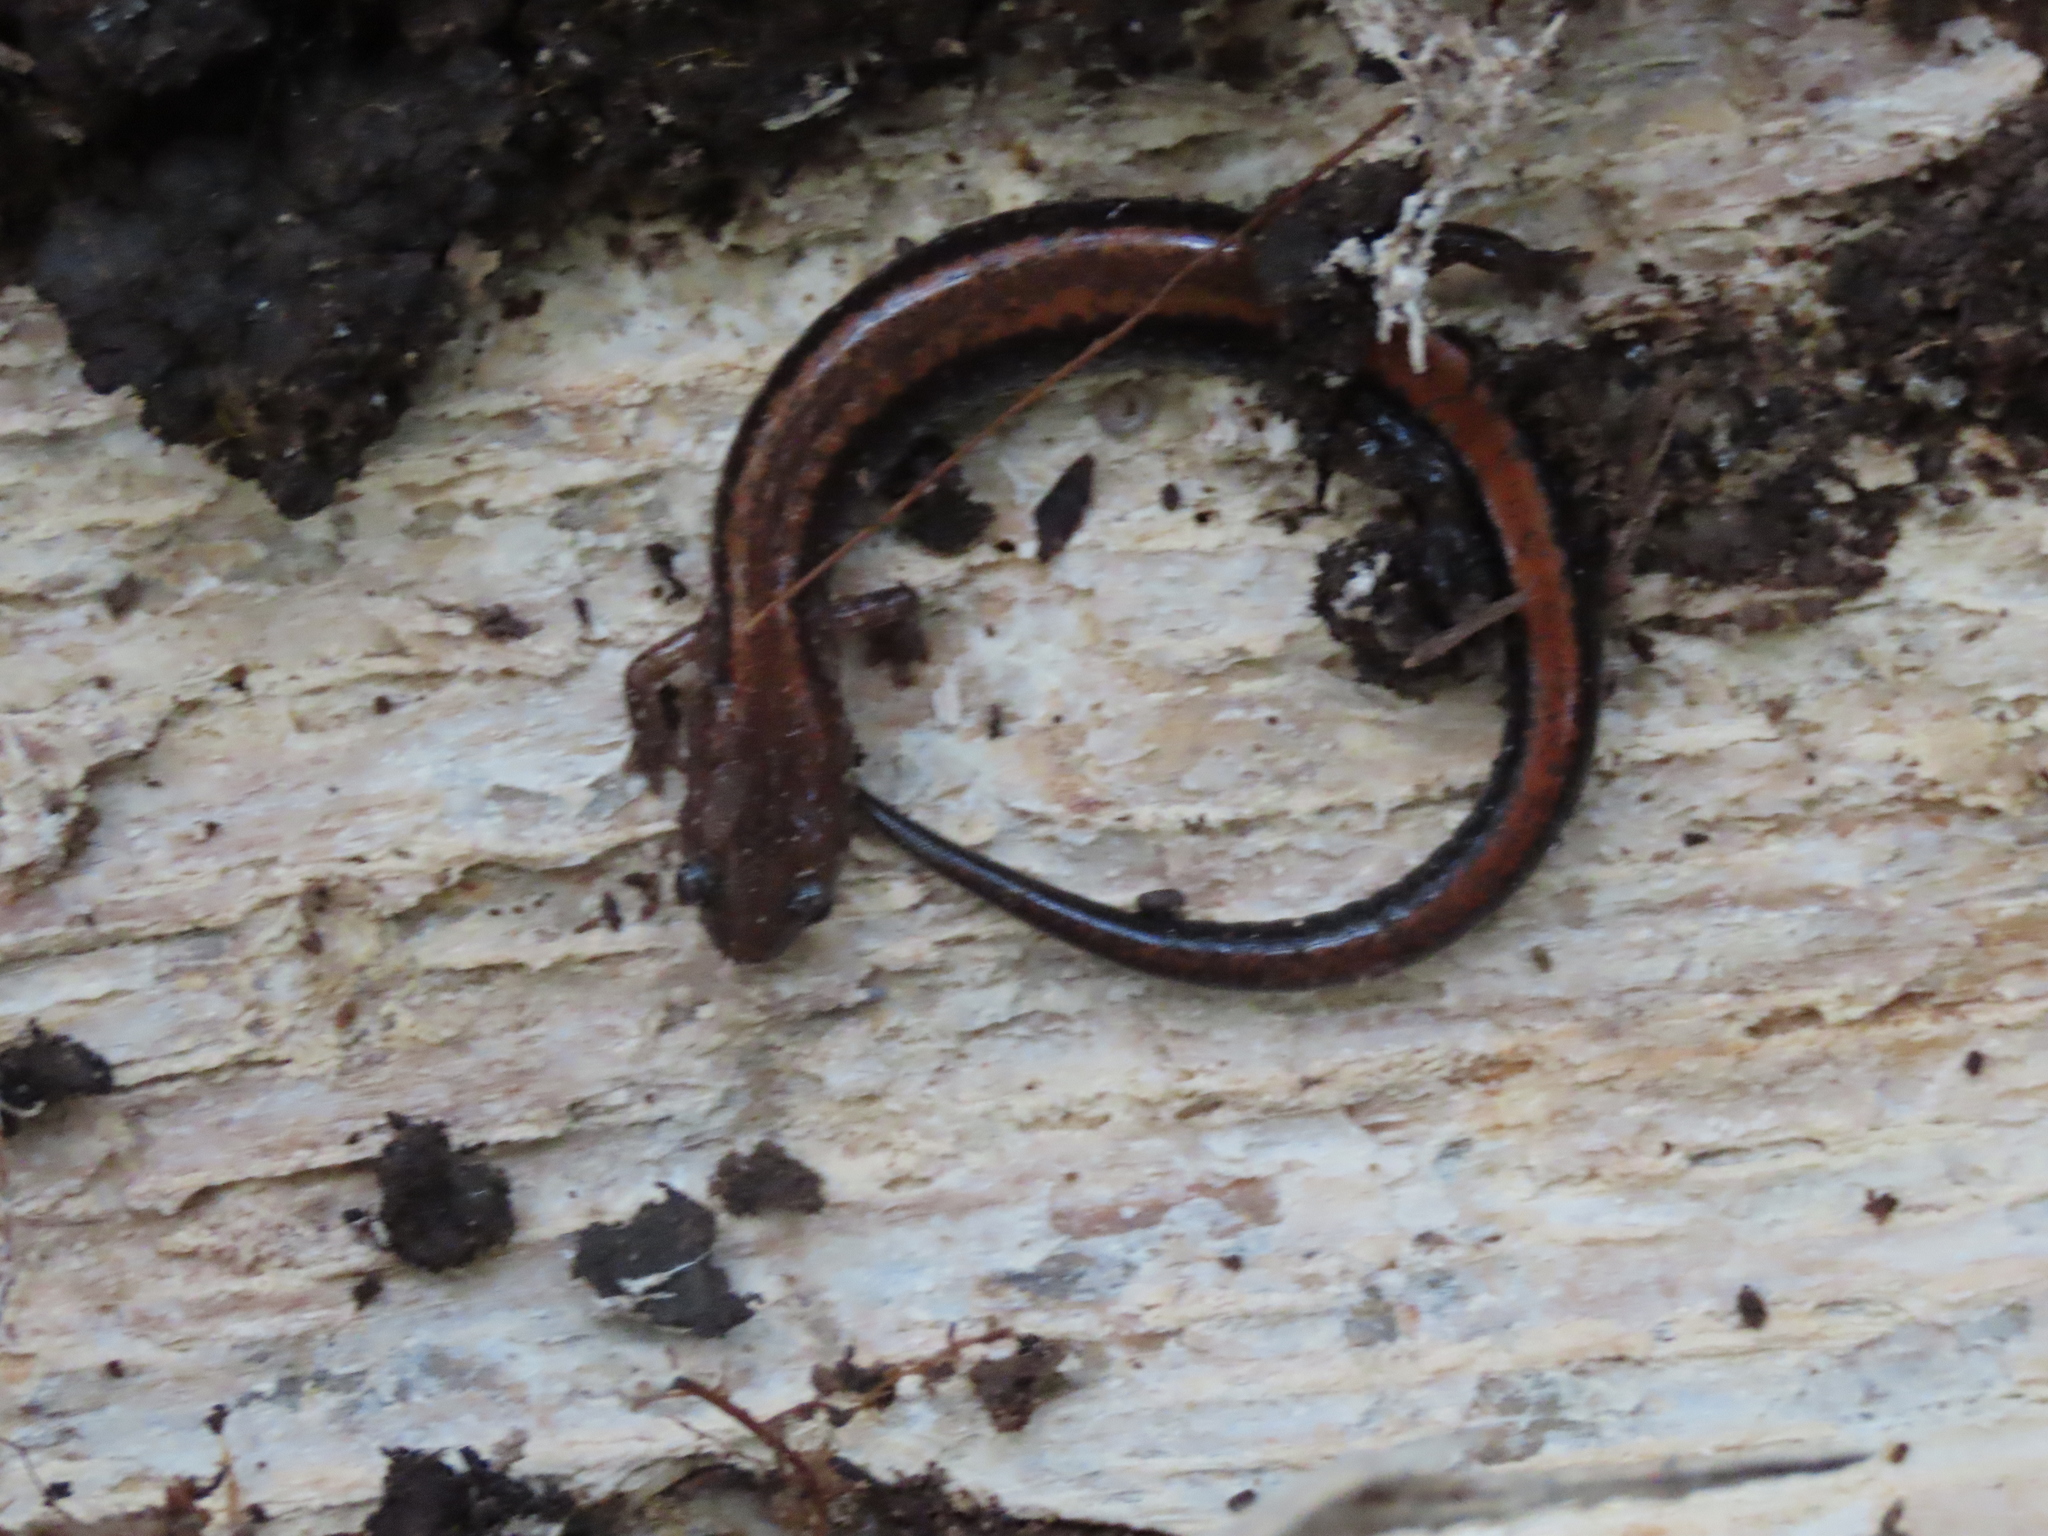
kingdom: Animalia
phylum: Chordata
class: Amphibia
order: Caudata
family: Plethodontidae
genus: Plethodon
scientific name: Plethodon cinereus
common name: Redback salamander
